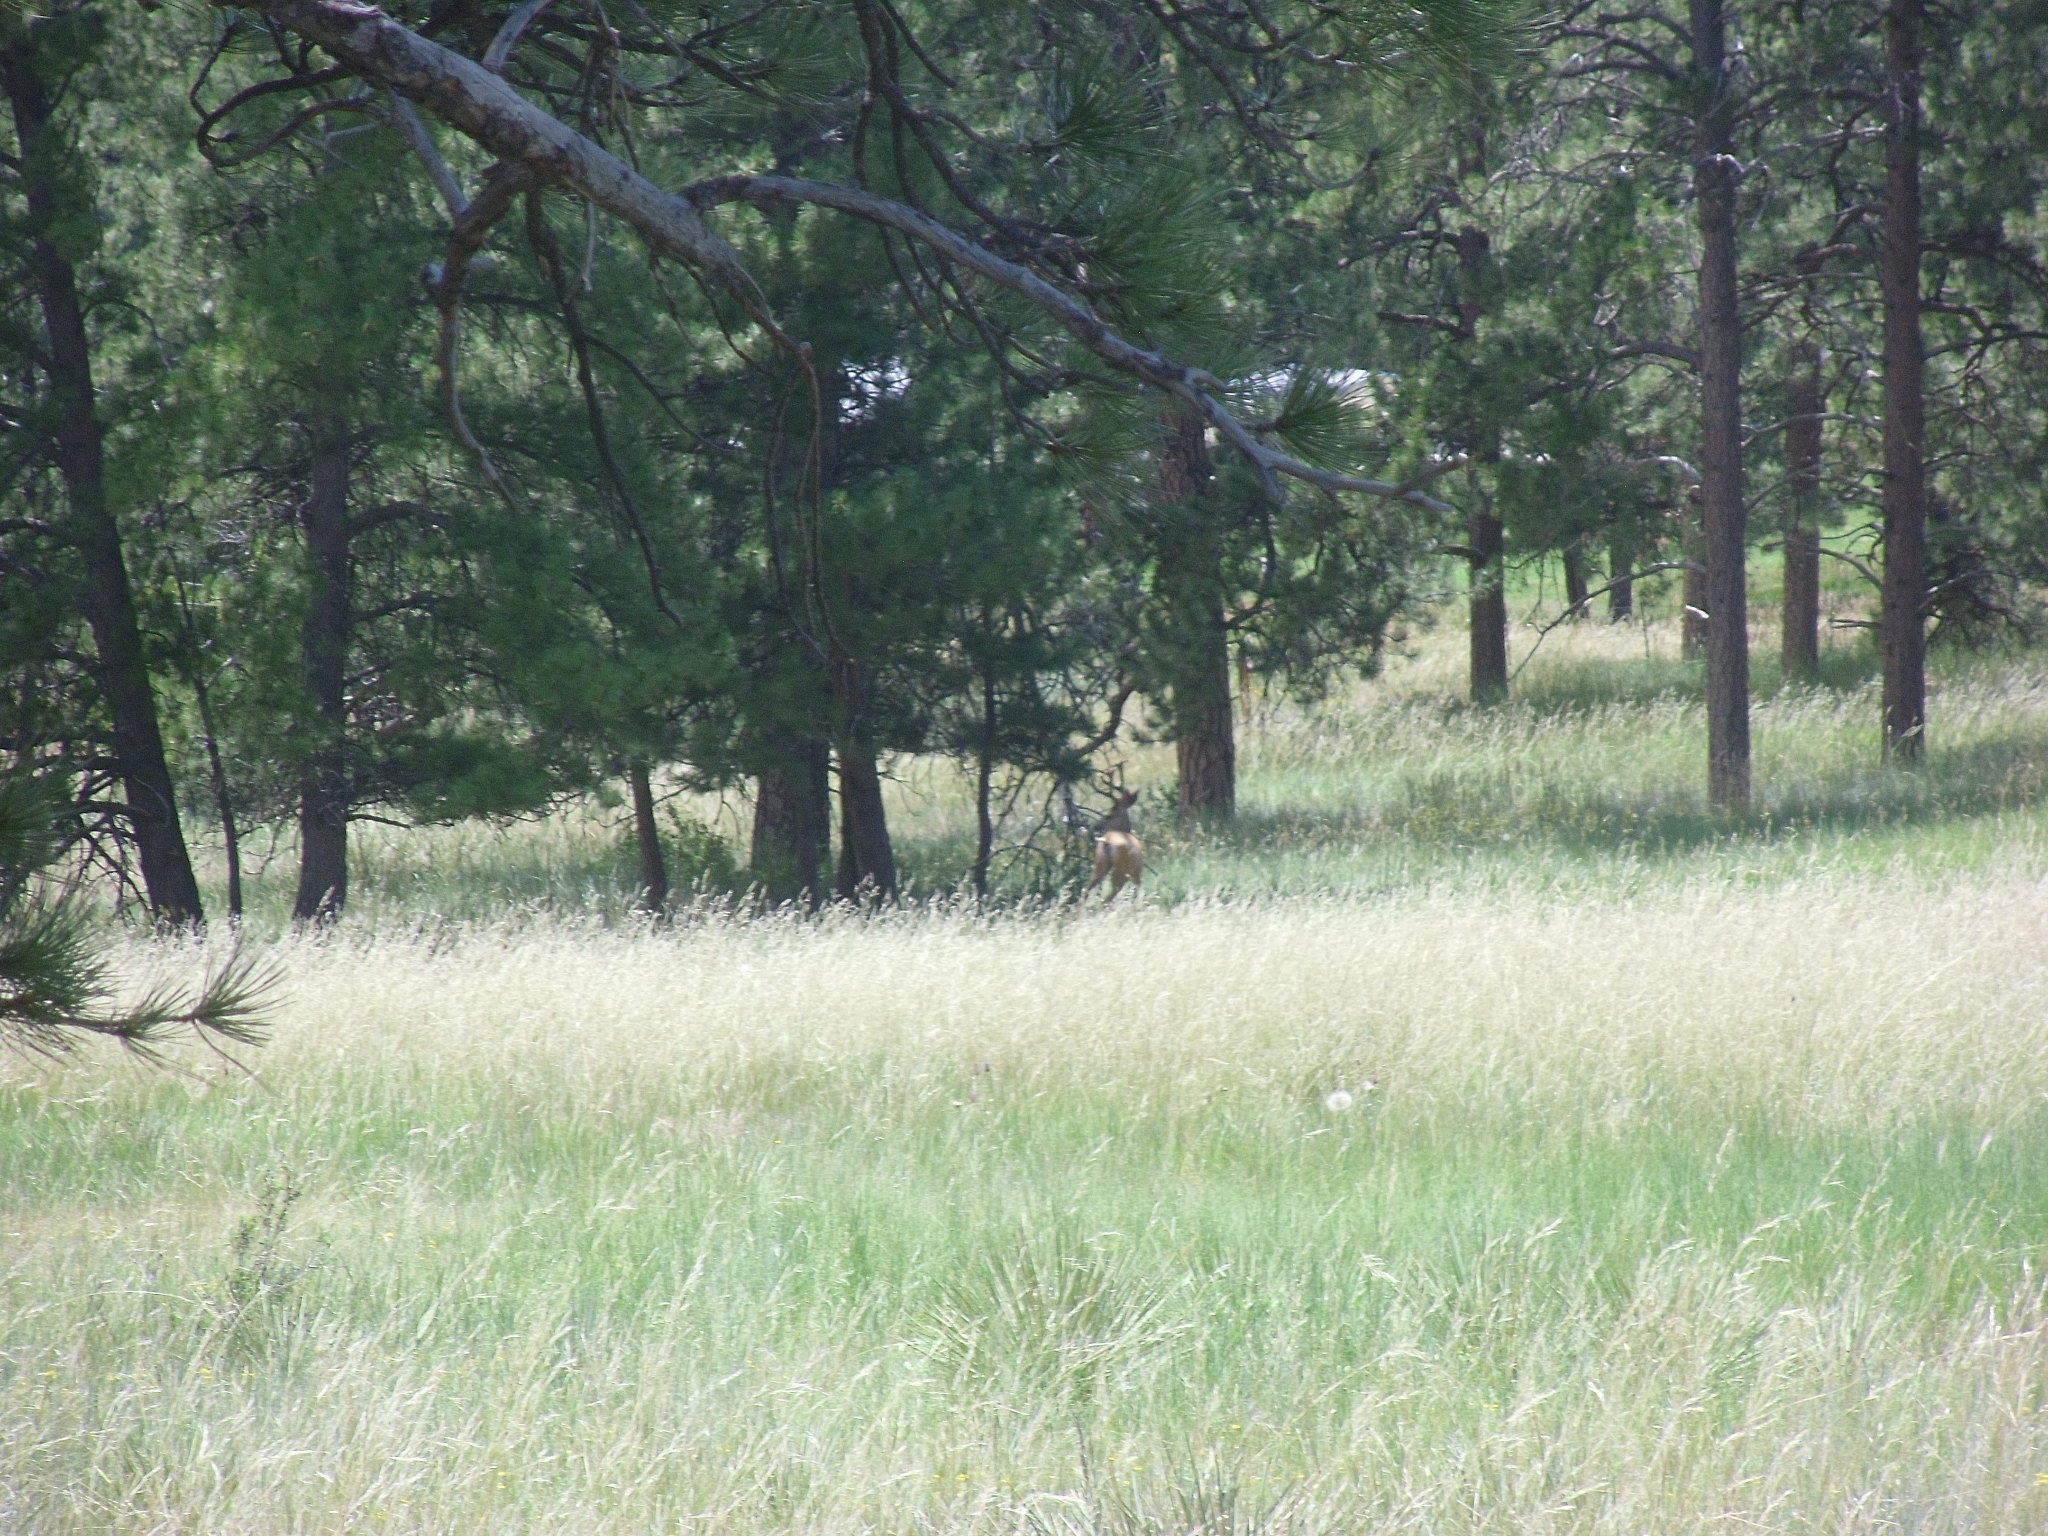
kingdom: Animalia
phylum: Chordata
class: Mammalia
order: Artiodactyla
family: Cervidae
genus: Odocoileus
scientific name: Odocoileus hemionus
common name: Mule deer
